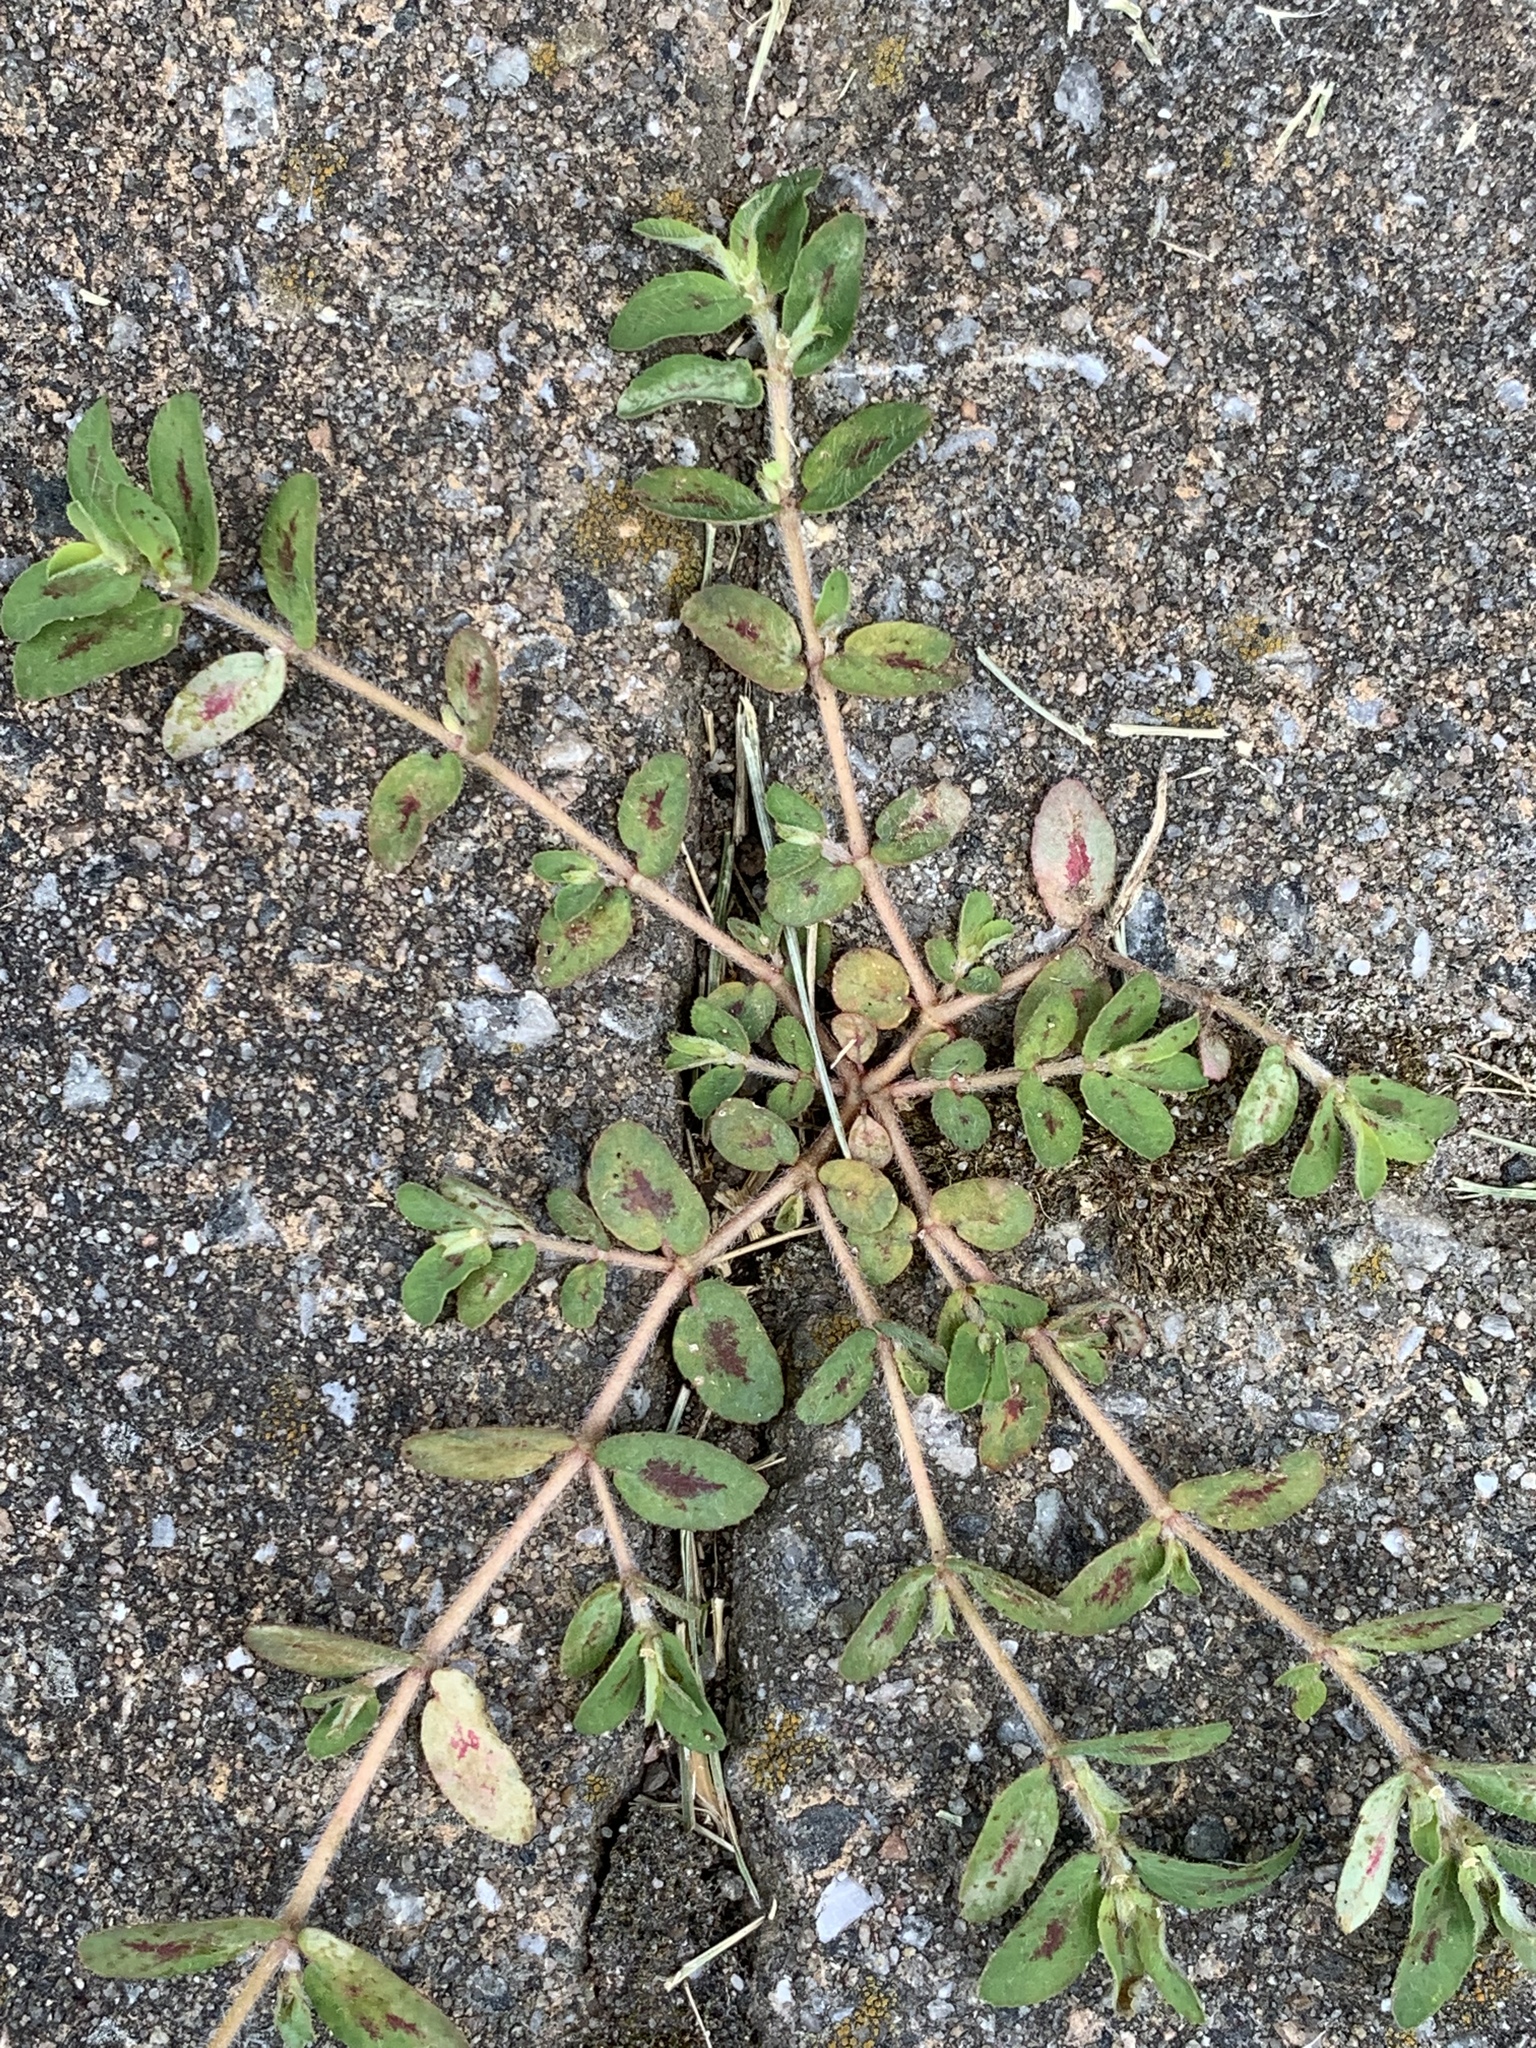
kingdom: Plantae
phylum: Tracheophyta
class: Magnoliopsida
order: Malpighiales
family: Euphorbiaceae
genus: Euphorbia
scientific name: Euphorbia maculata
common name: Spotted spurge
